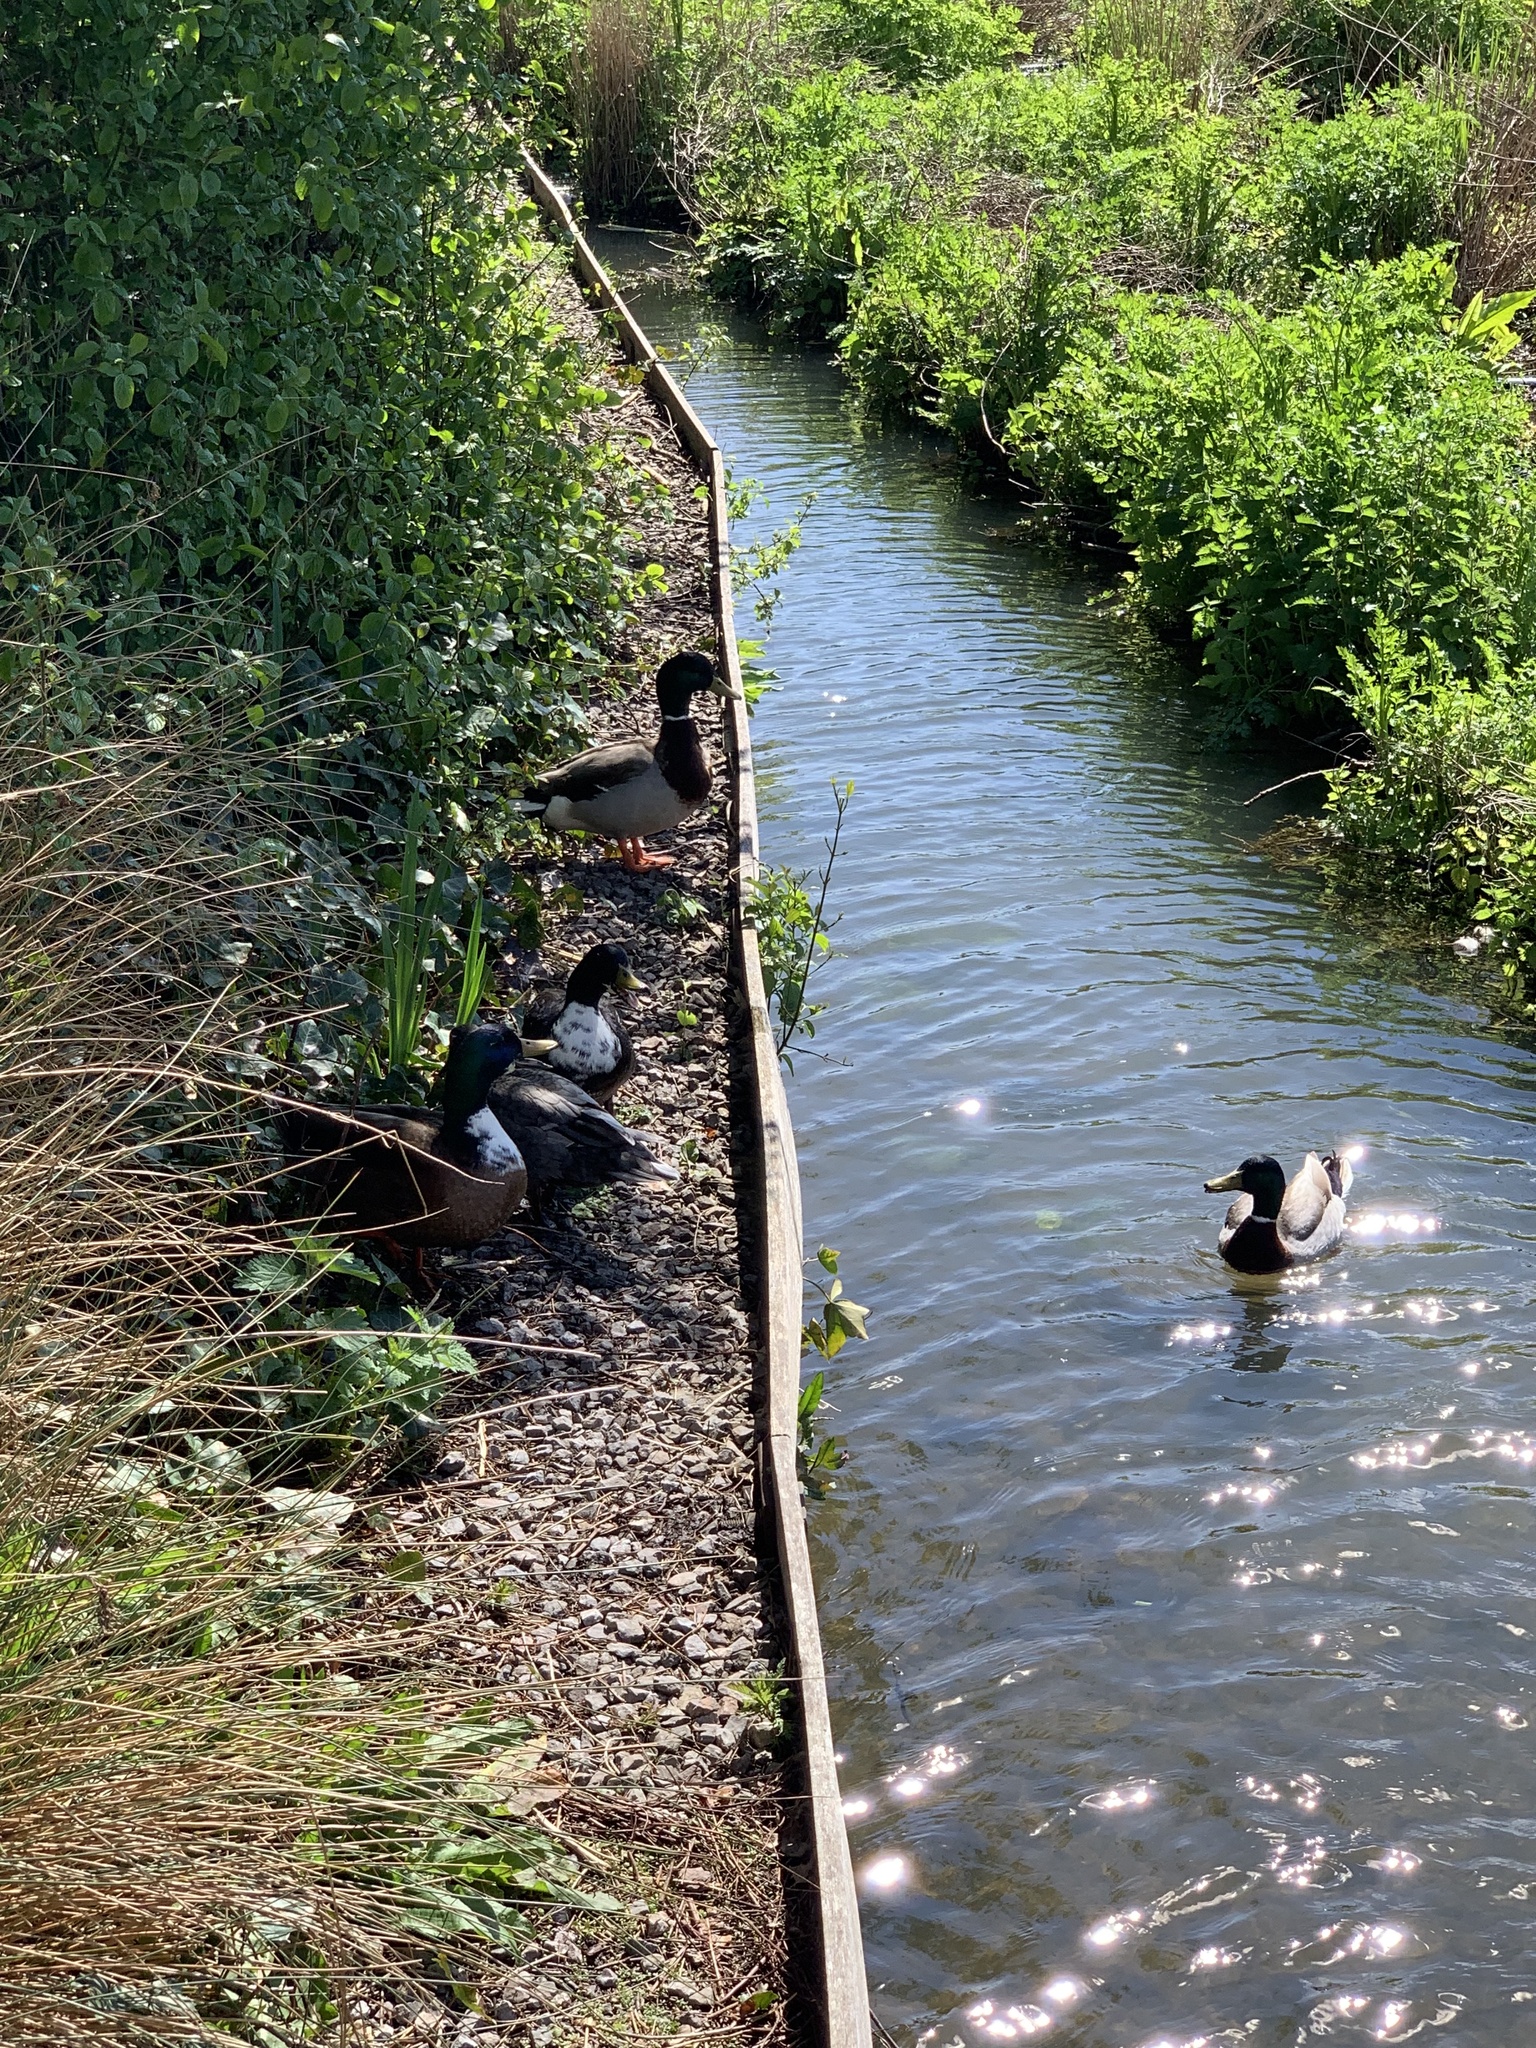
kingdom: Animalia
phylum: Chordata
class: Aves
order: Anseriformes
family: Anatidae
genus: Anas
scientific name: Anas platyrhynchos
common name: Mallard
